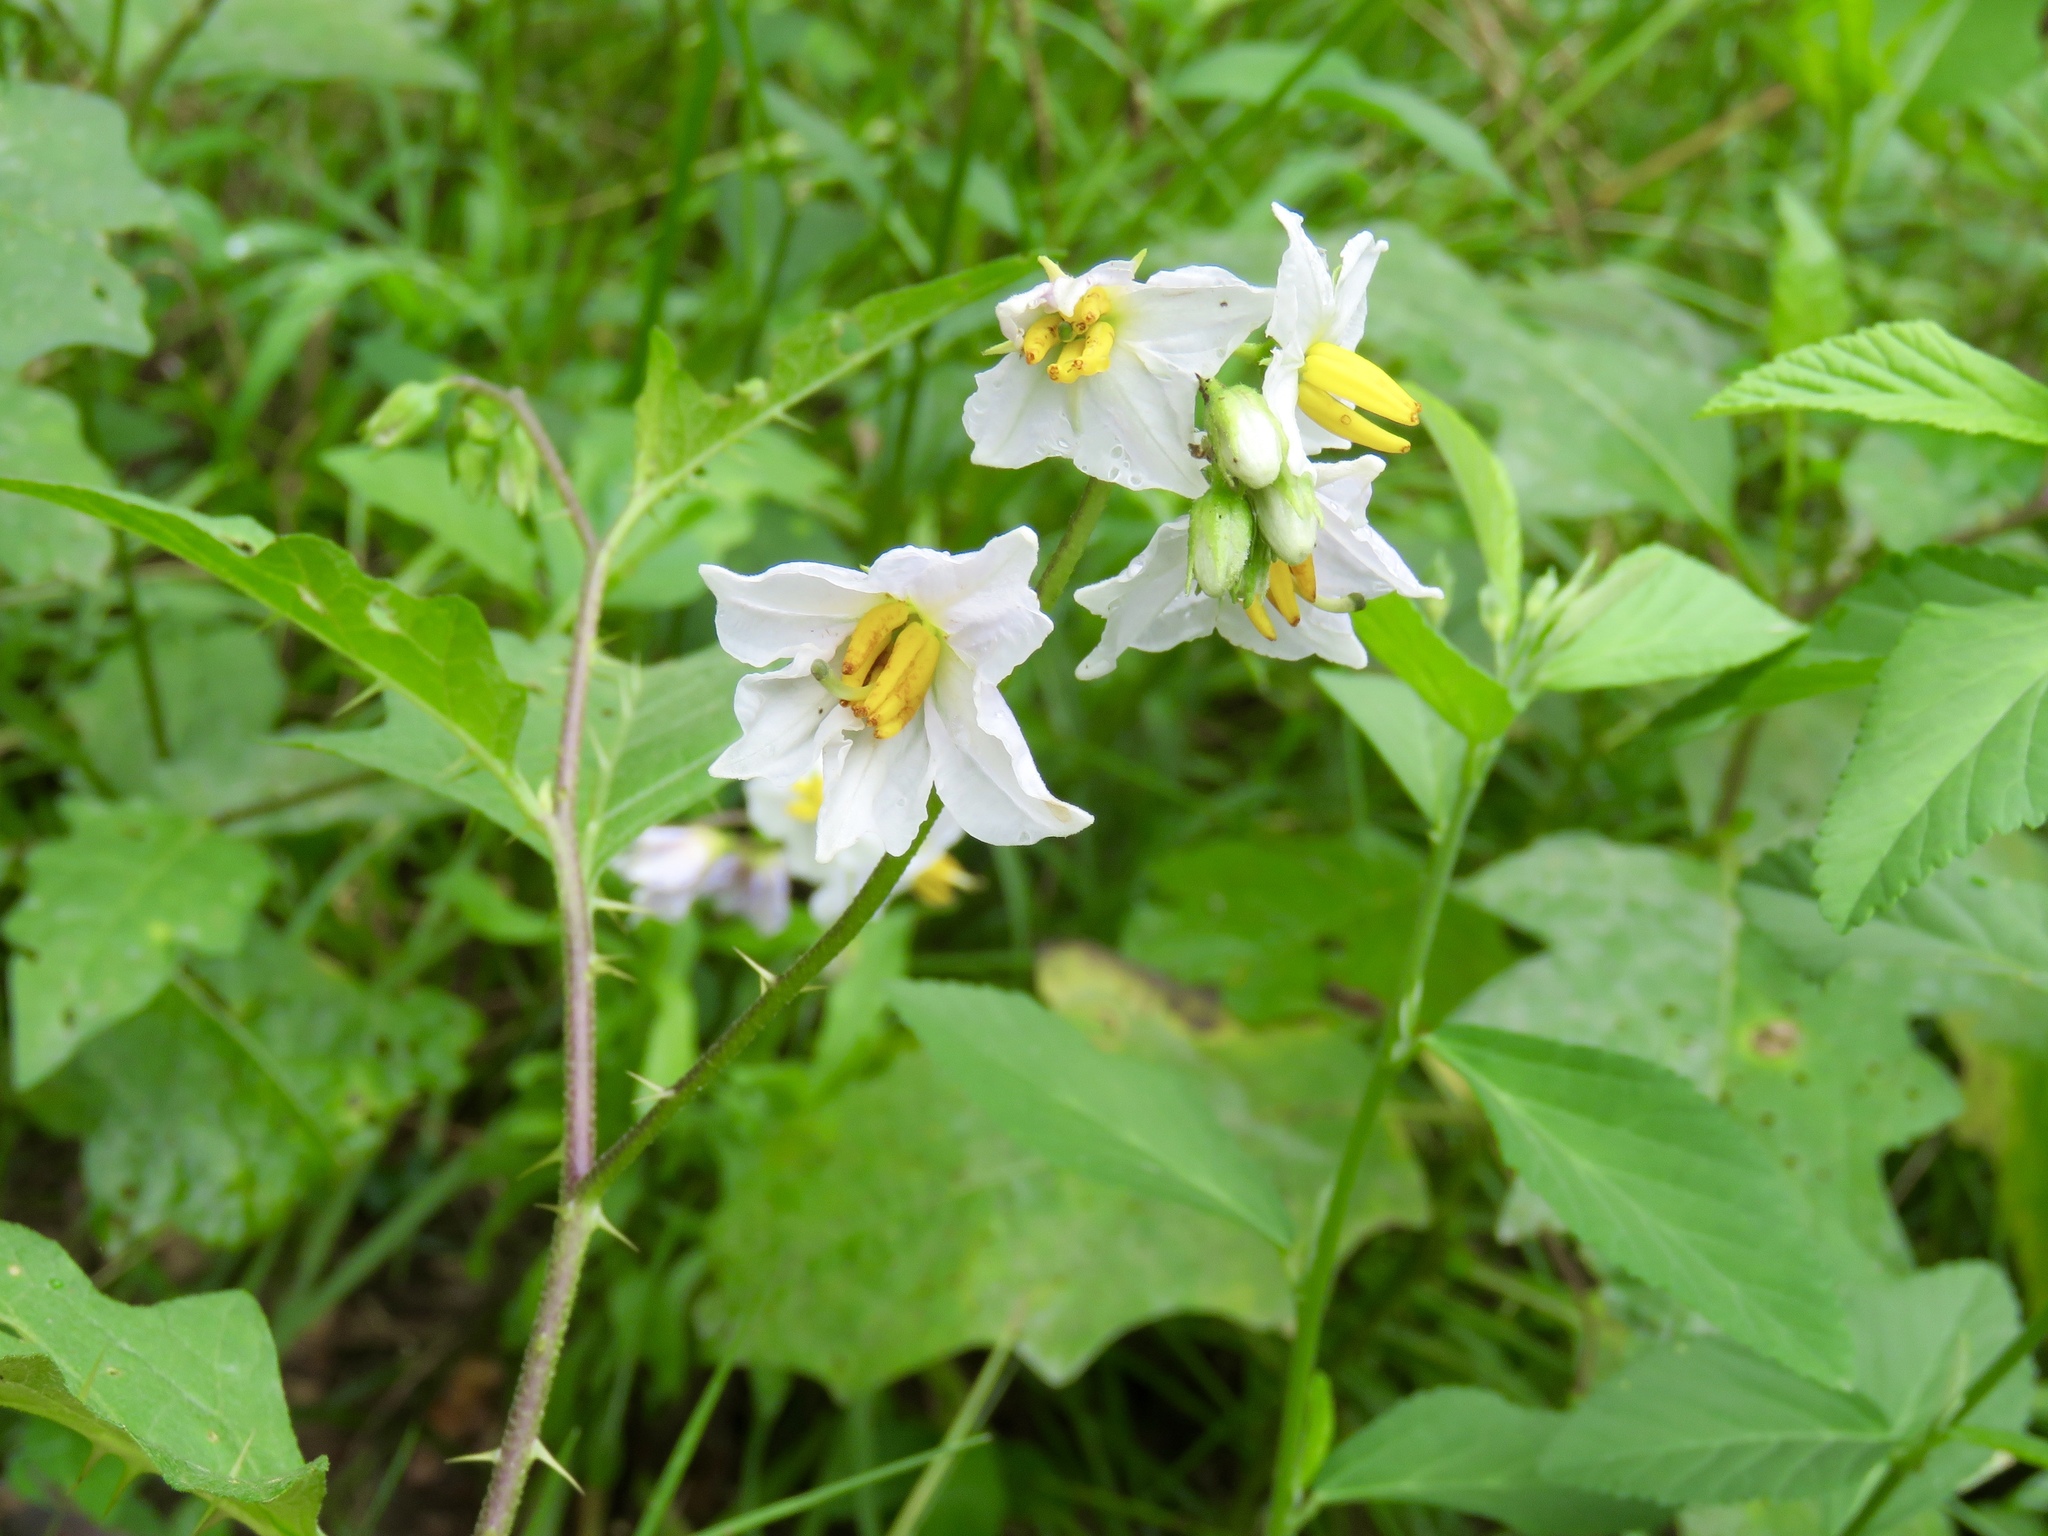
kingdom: Plantae
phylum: Tracheophyta
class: Magnoliopsida
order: Solanales
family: Solanaceae
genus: Solanum
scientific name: Solanum carolinense
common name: Horse-nettle
